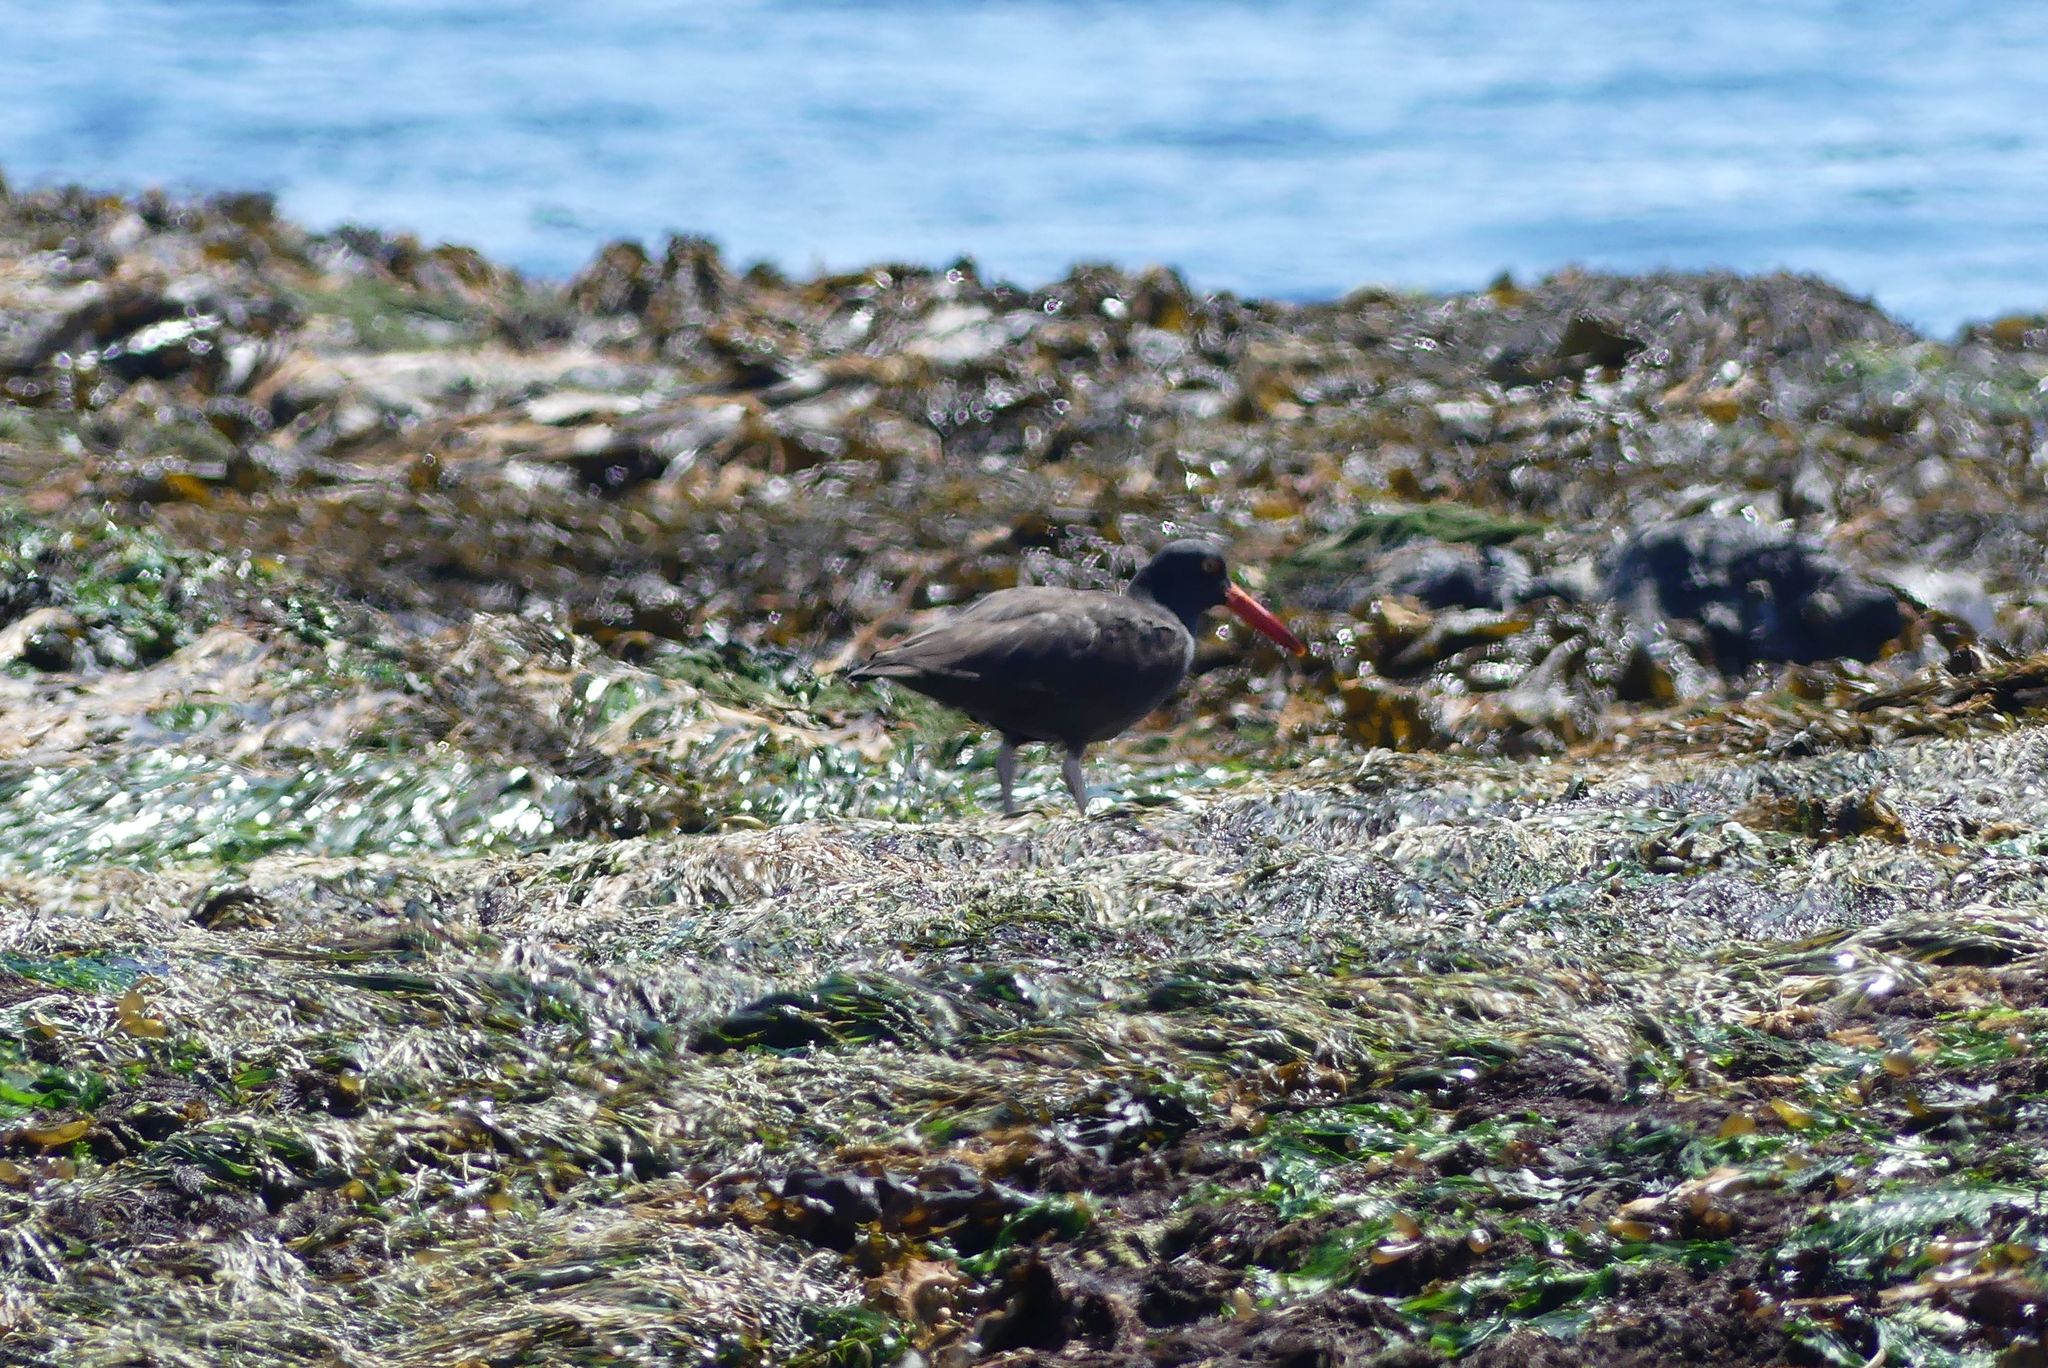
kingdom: Animalia
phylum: Chordata
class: Aves
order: Charadriiformes
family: Haematopodidae
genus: Haematopus
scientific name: Haematopus bachmani
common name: Black oystercatcher
